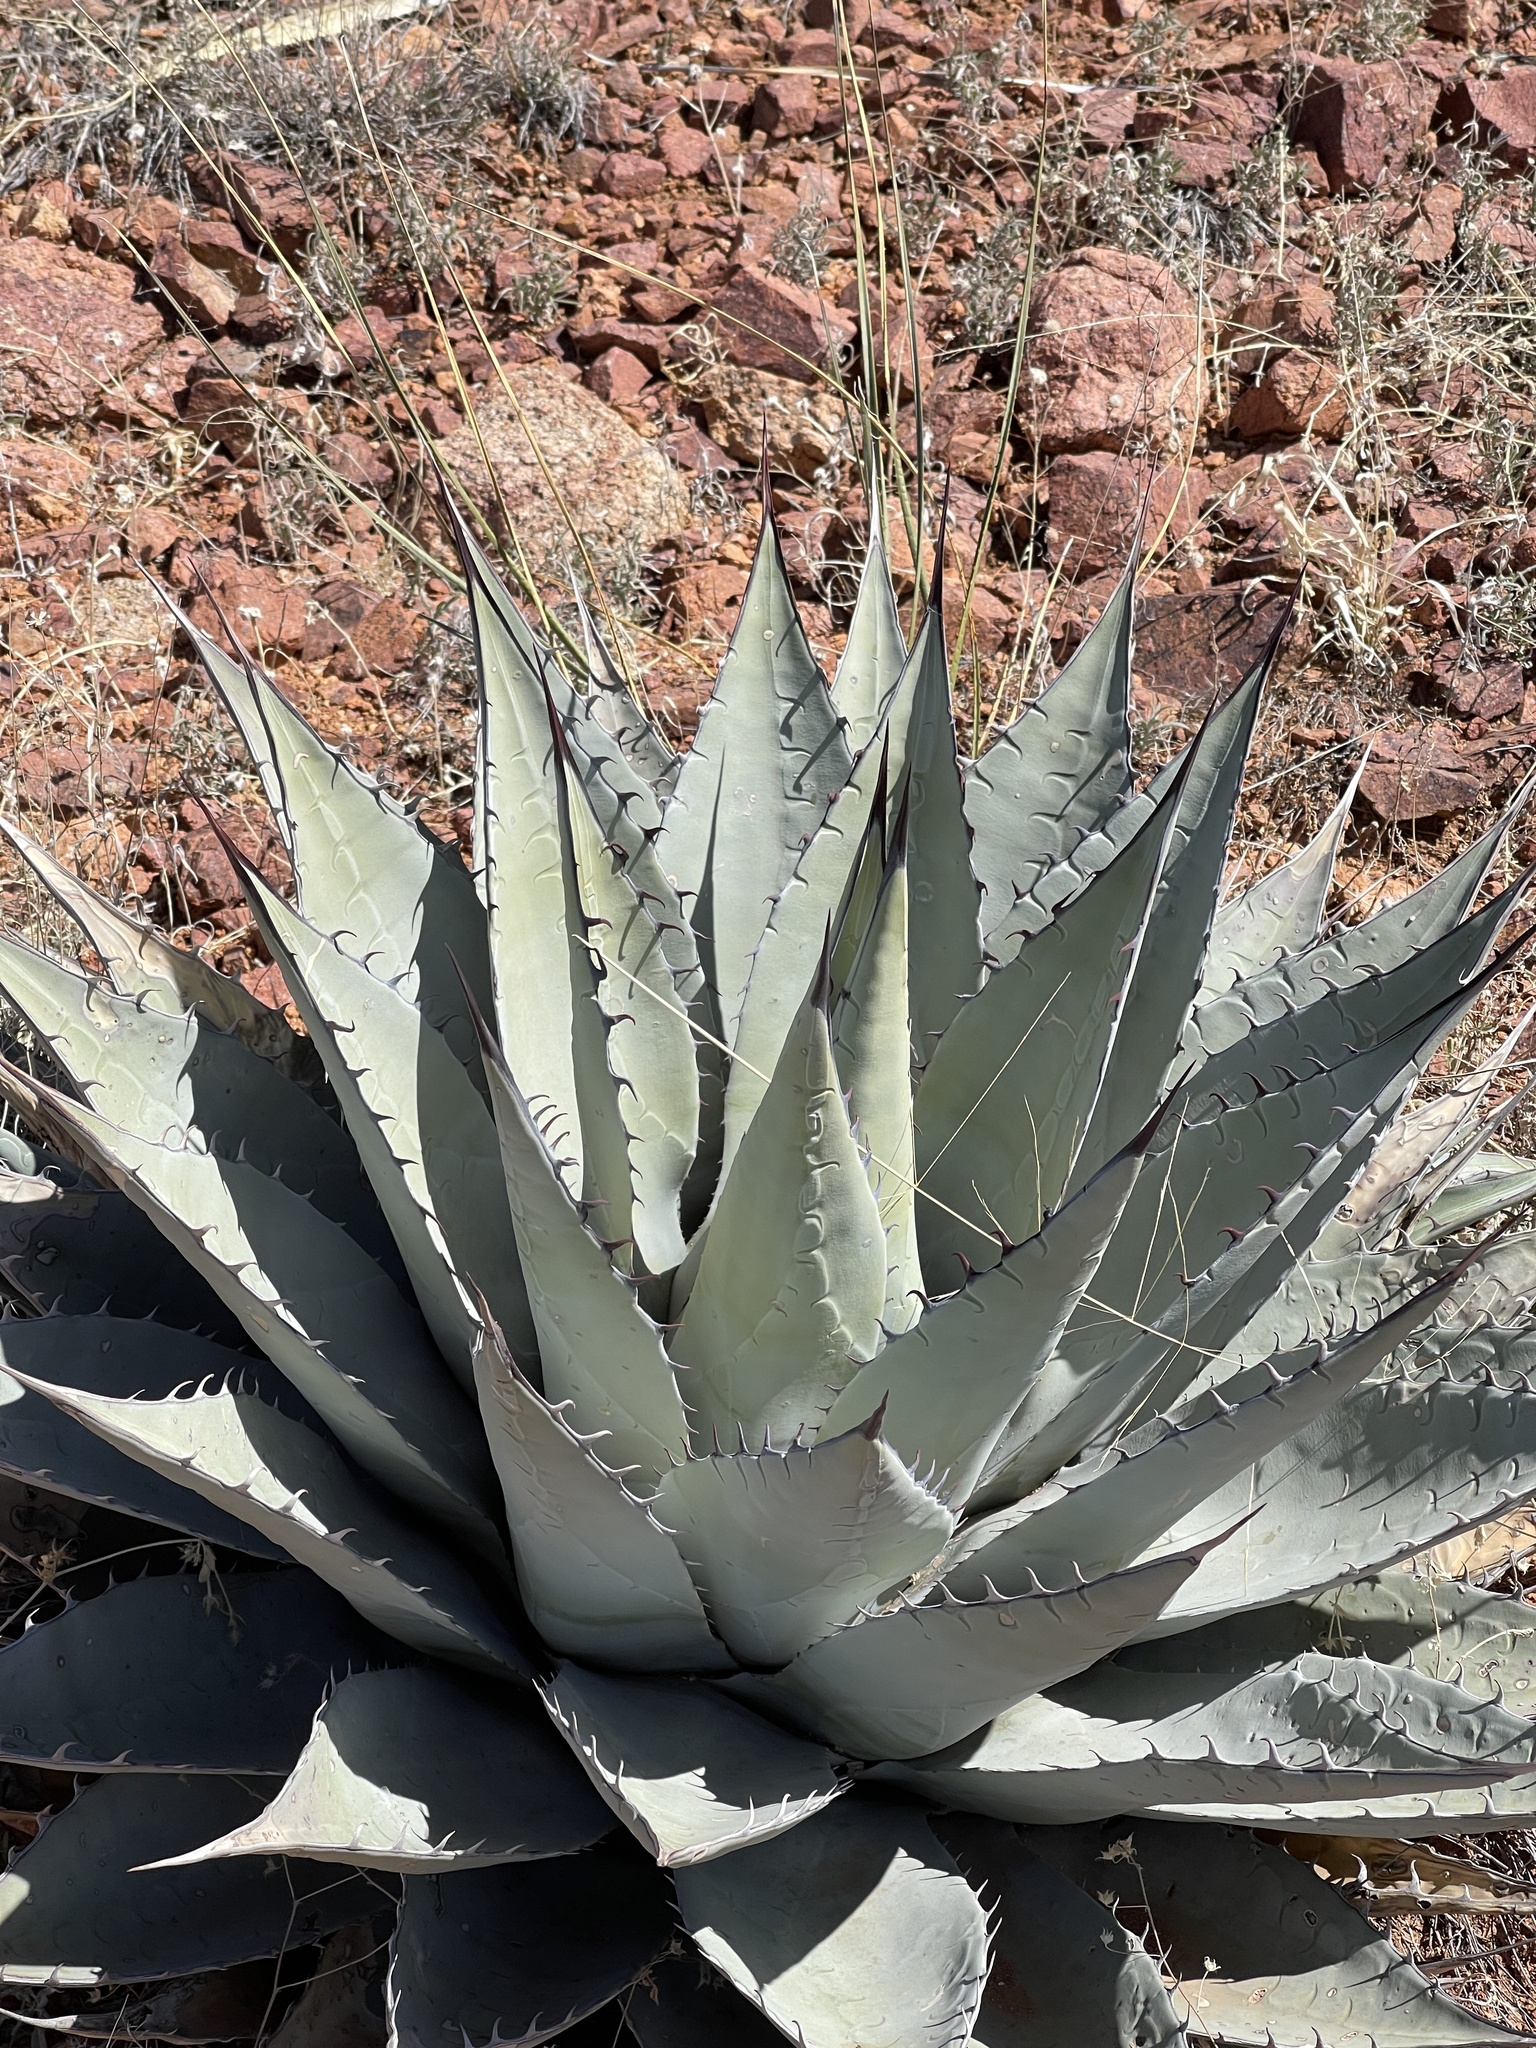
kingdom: Plantae
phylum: Tracheophyta
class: Liliopsida
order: Asparagales
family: Asparagaceae
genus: Agave
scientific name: Agave parryi
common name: Parry's agave
